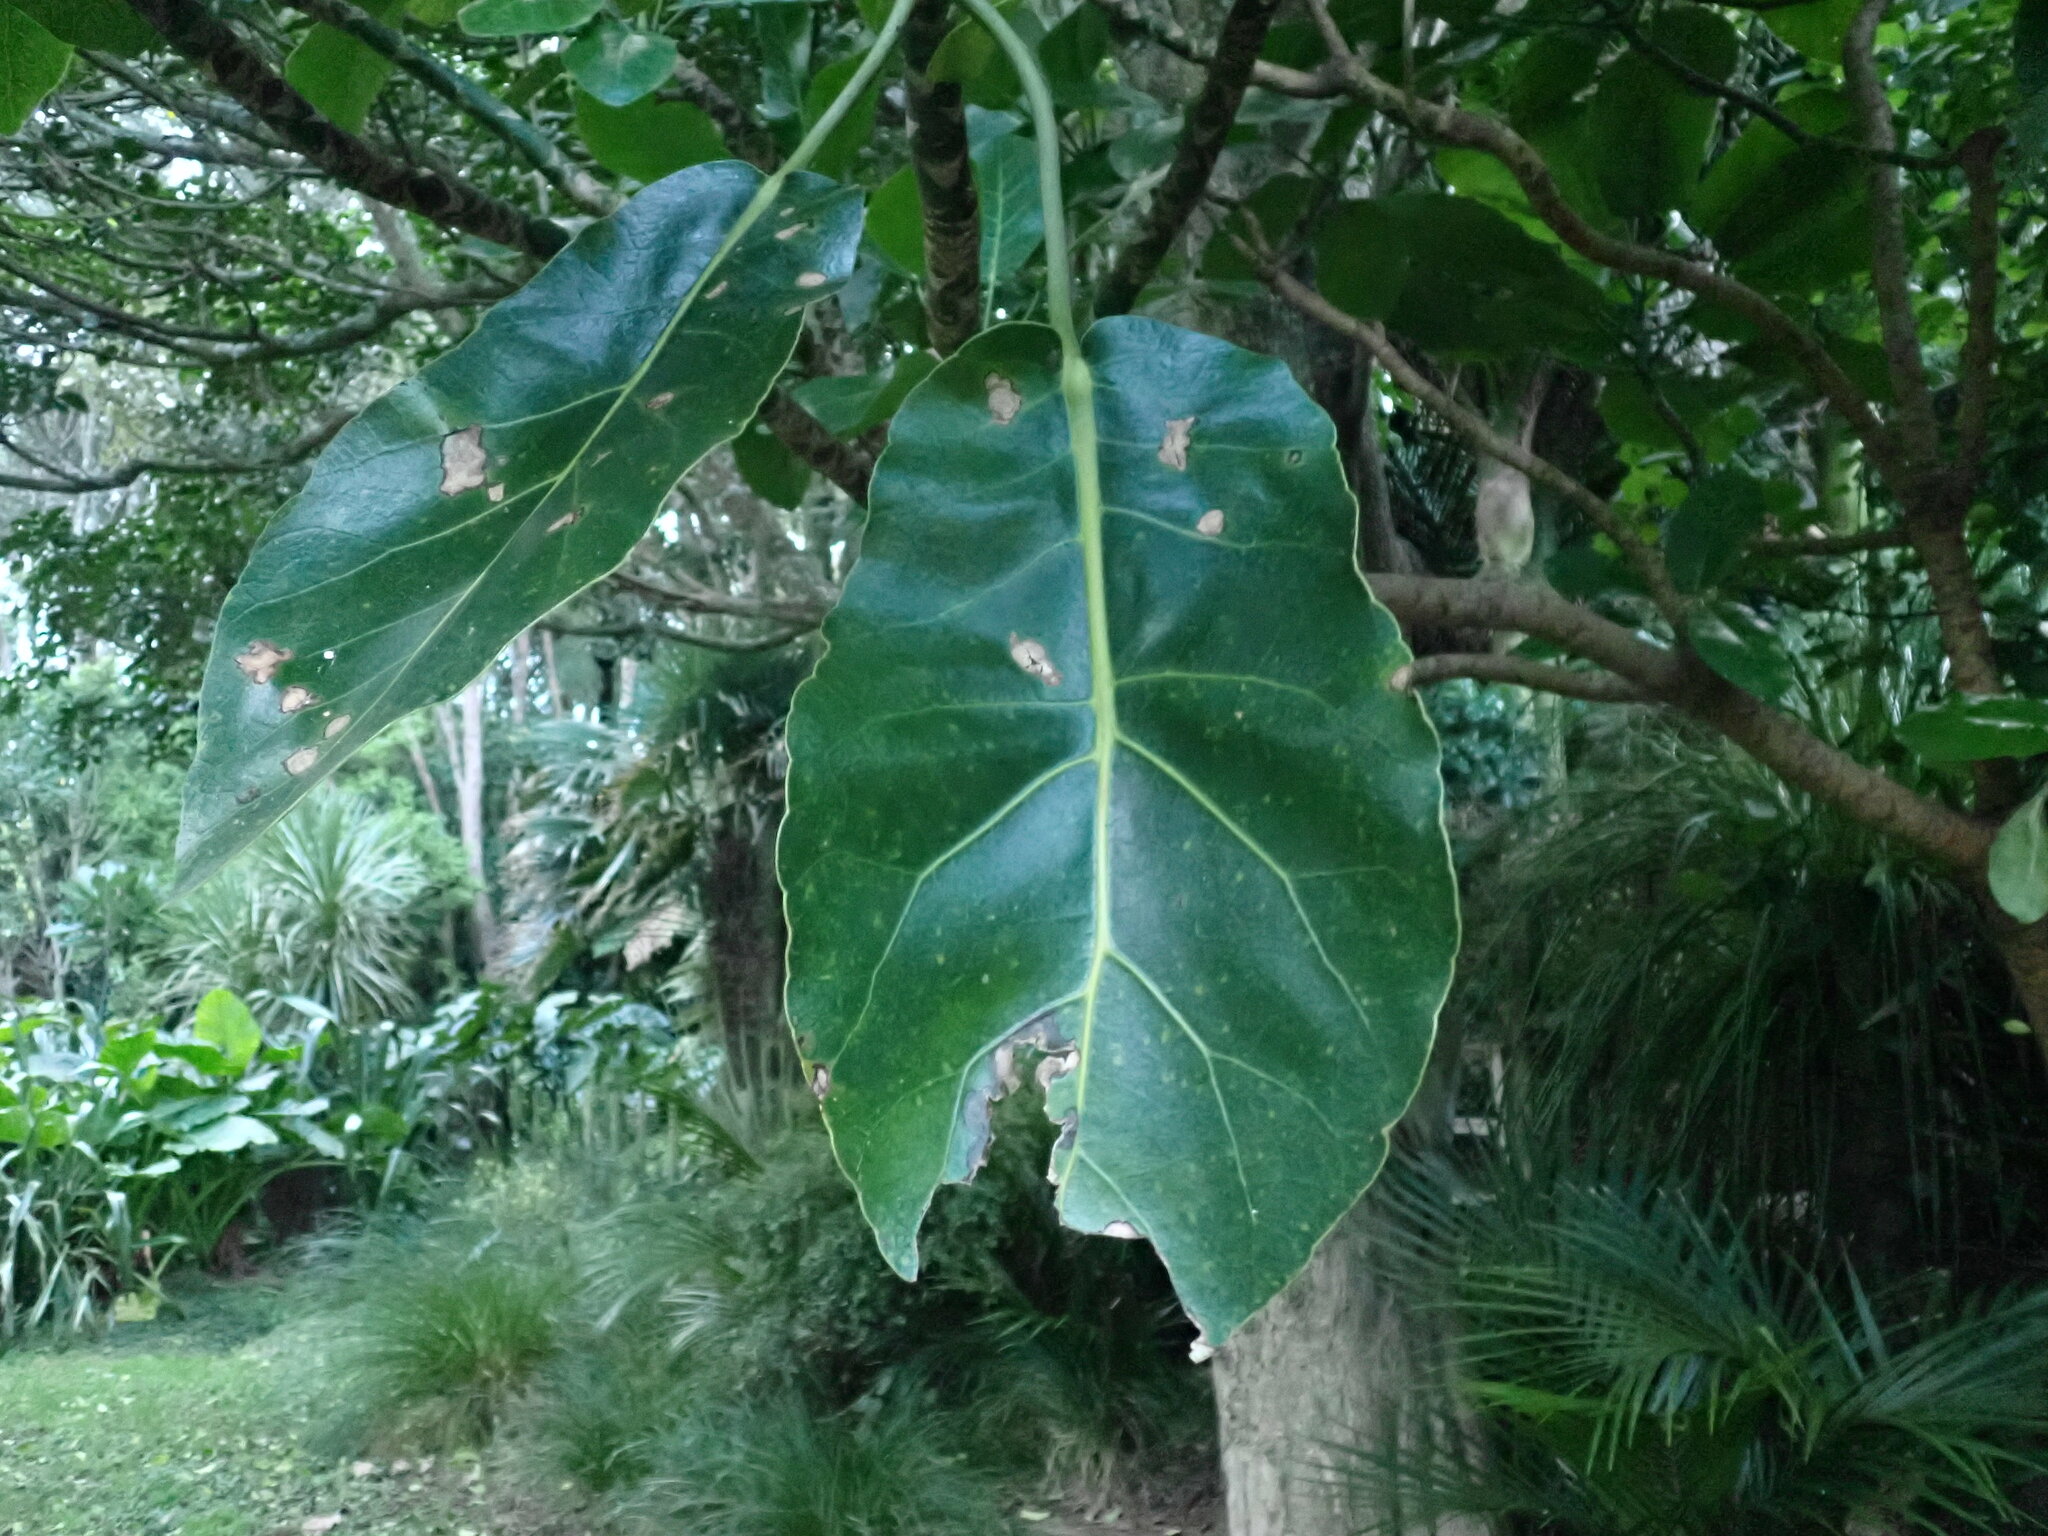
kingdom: Plantae
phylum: Tracheophyta
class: Magnoliopsida
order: Apiales
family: Araliaceae
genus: Meryta
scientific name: Meryta sinclairii
